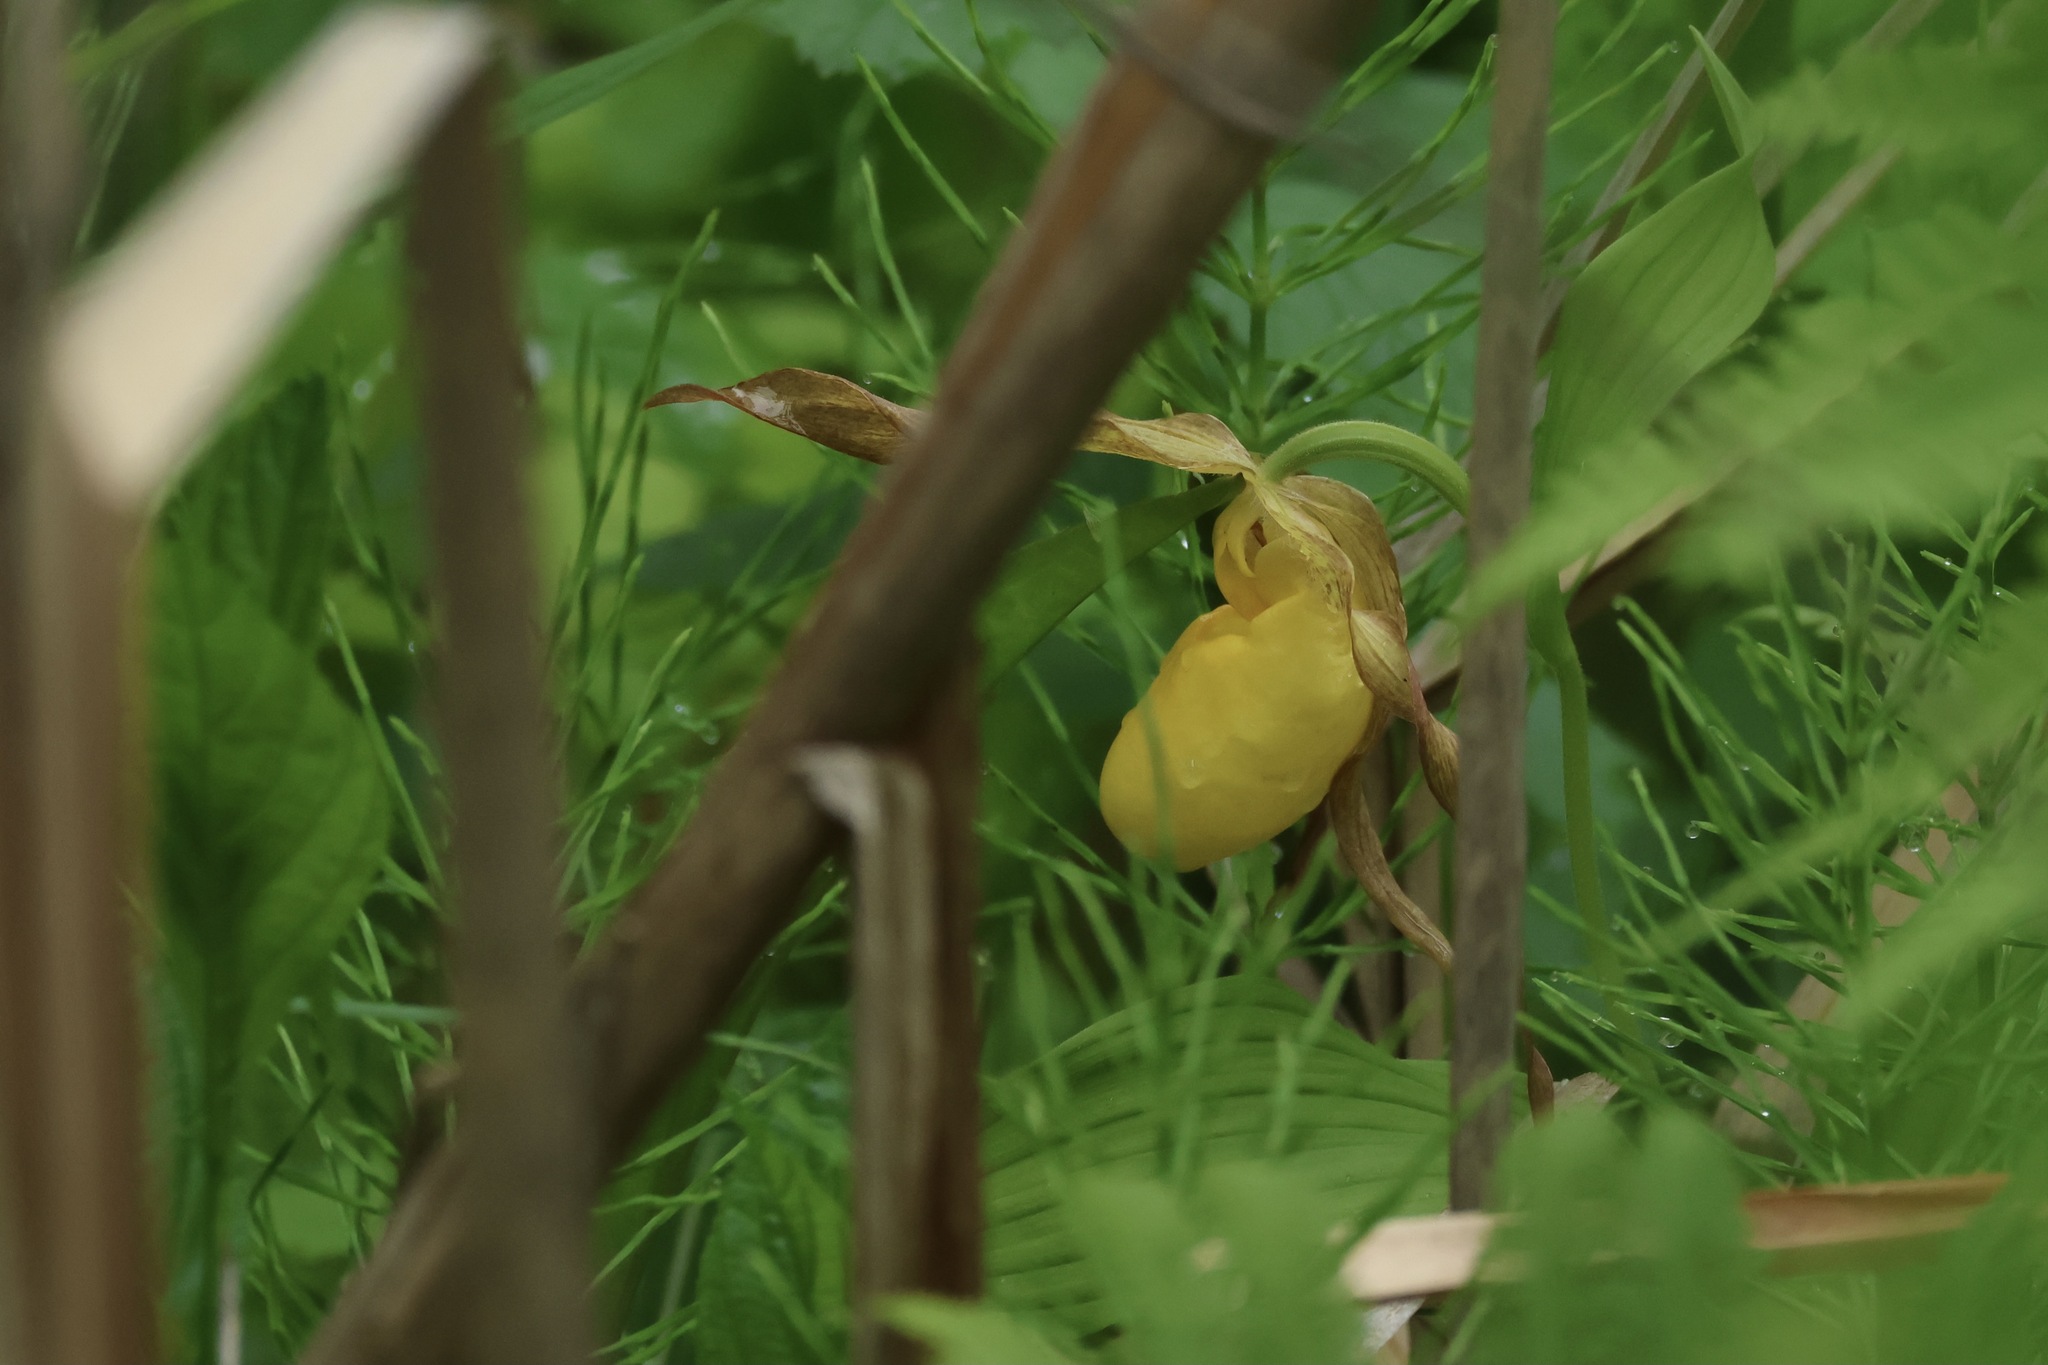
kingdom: Plantae
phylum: Tracheophyta
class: Liliopsida
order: Asparagales
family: Orchidaceae
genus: Cypripedium
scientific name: Cypripedium parviflorum
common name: American yellow lady's-slipper
